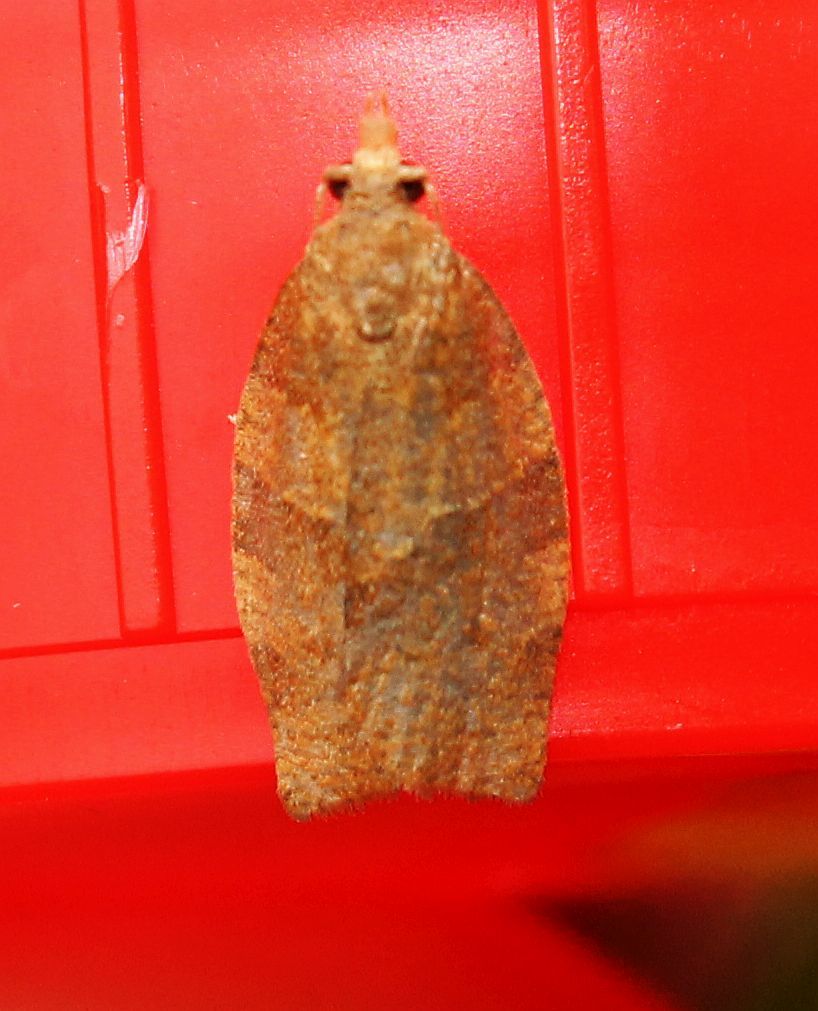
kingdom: Animalia
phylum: Arthropoda
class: Insecta
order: Lepidoptera
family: Tortricidae
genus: Pandemis
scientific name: Pandemis cerasana
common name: Barred fruit-tree tortrix
